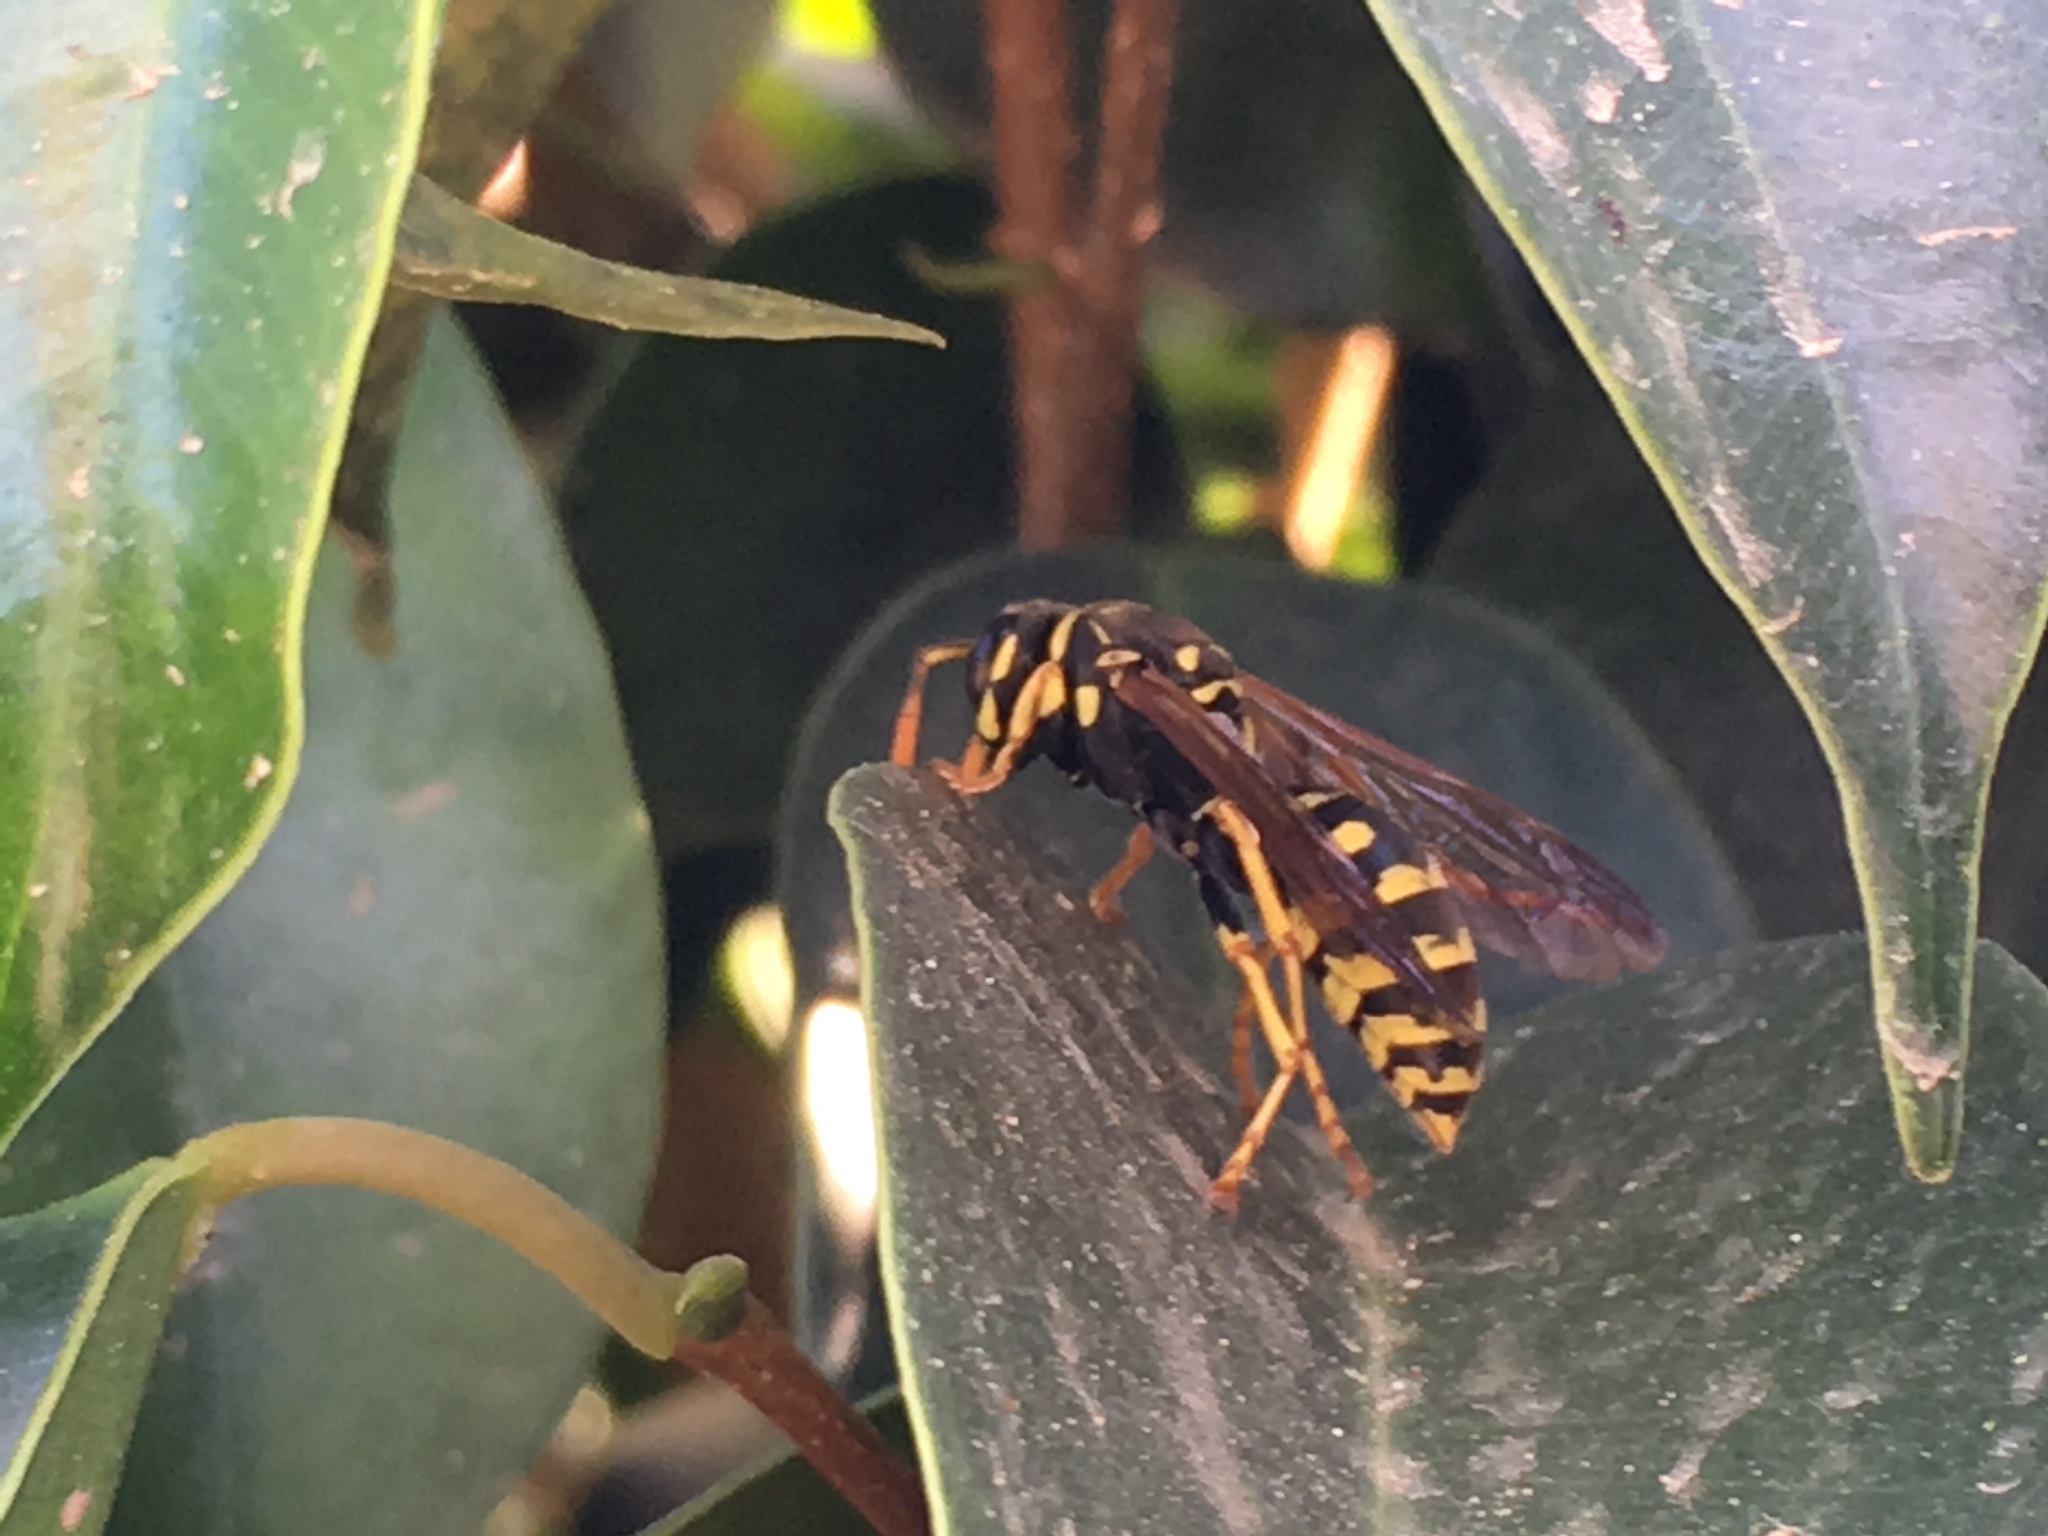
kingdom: Animalia
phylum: Arthropoda
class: Insecta
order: Hymenoptera
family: Eumenidae
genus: Polistes
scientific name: Polistes dominula
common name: Paper wasp
